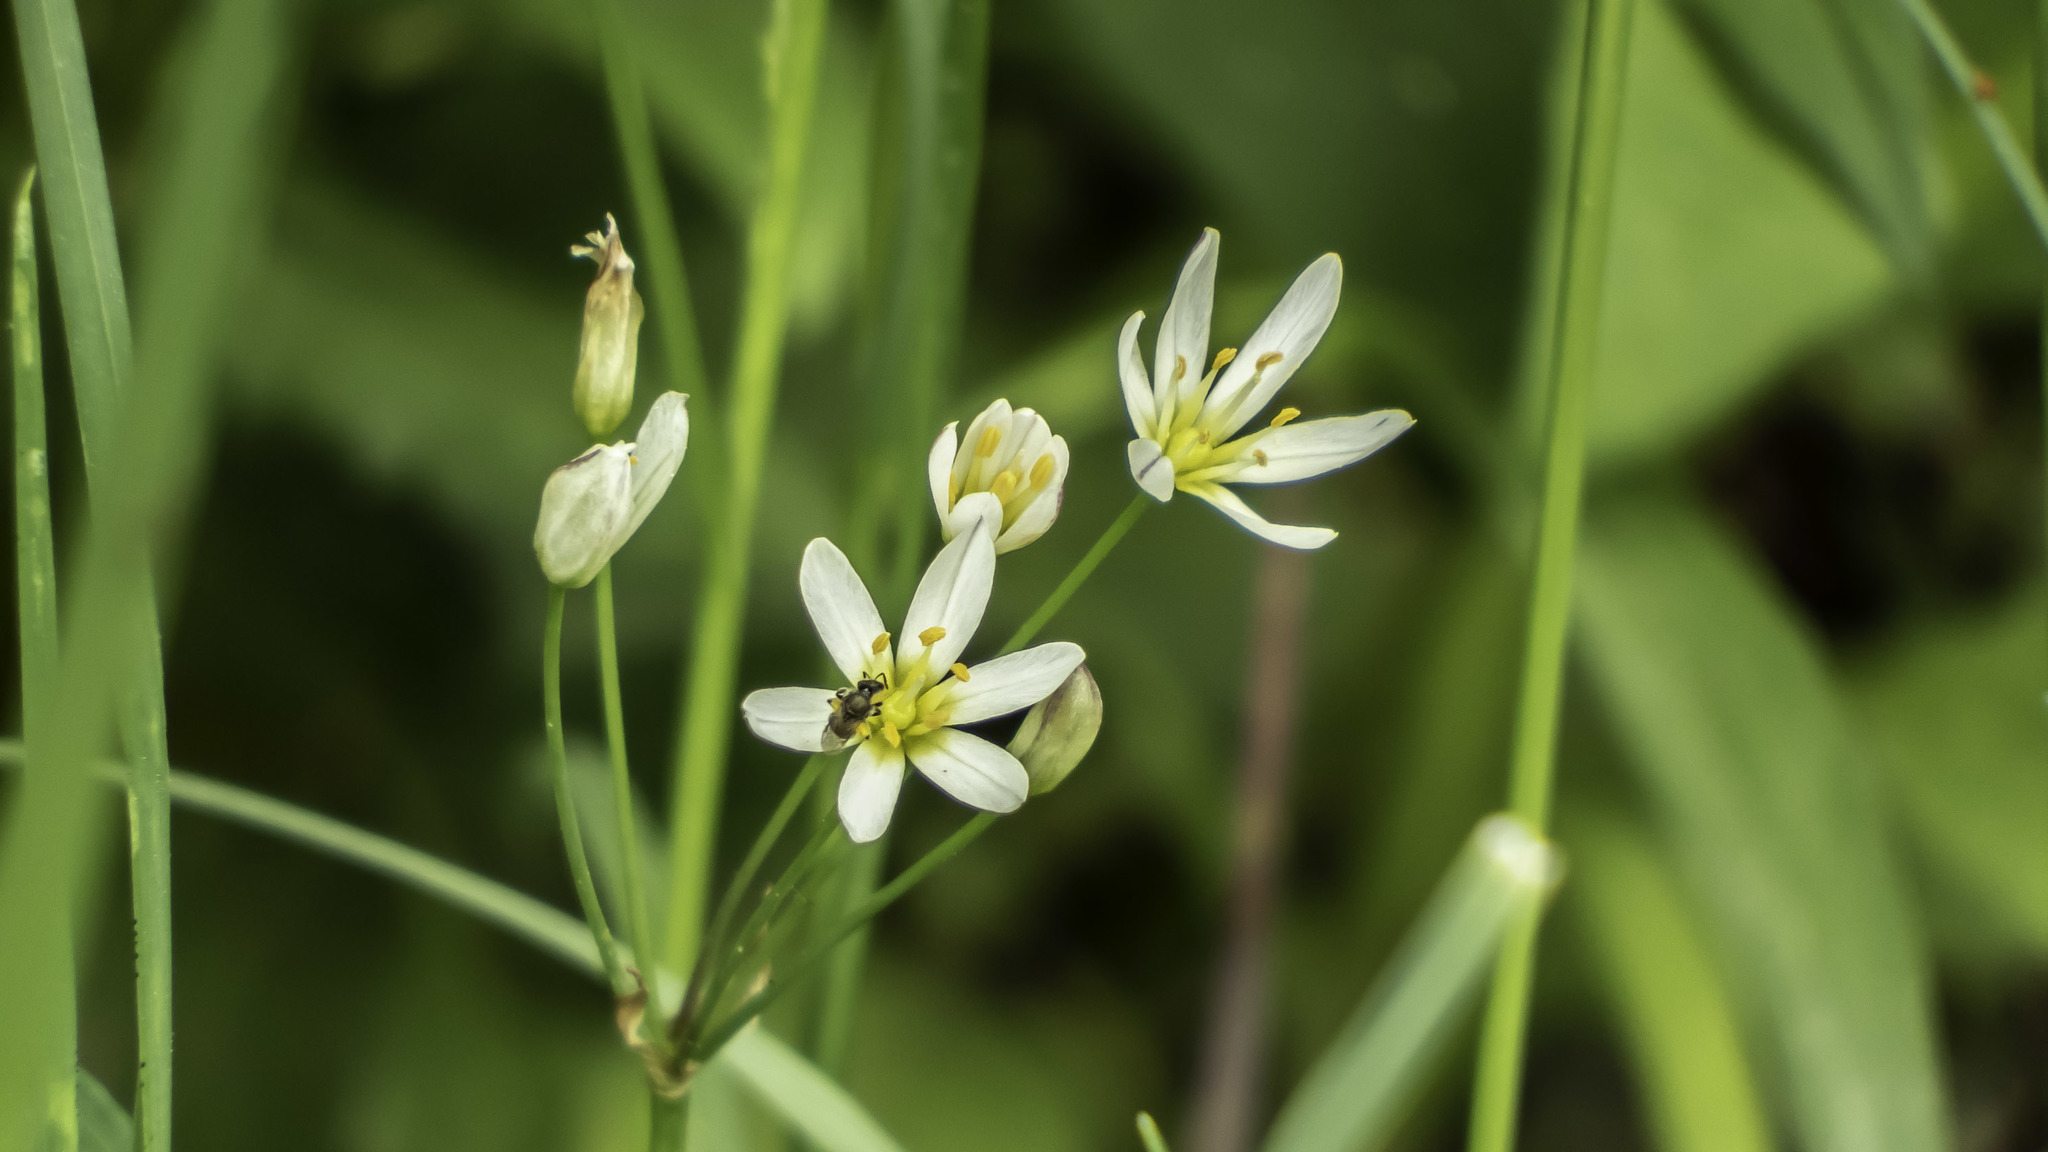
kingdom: Plantae
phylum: Tracheophyta
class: Liliopsida
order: Asparagales
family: Amaryllidaceae
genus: Nothoscordum
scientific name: Nothoscordum bivalve
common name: Crow-poison
